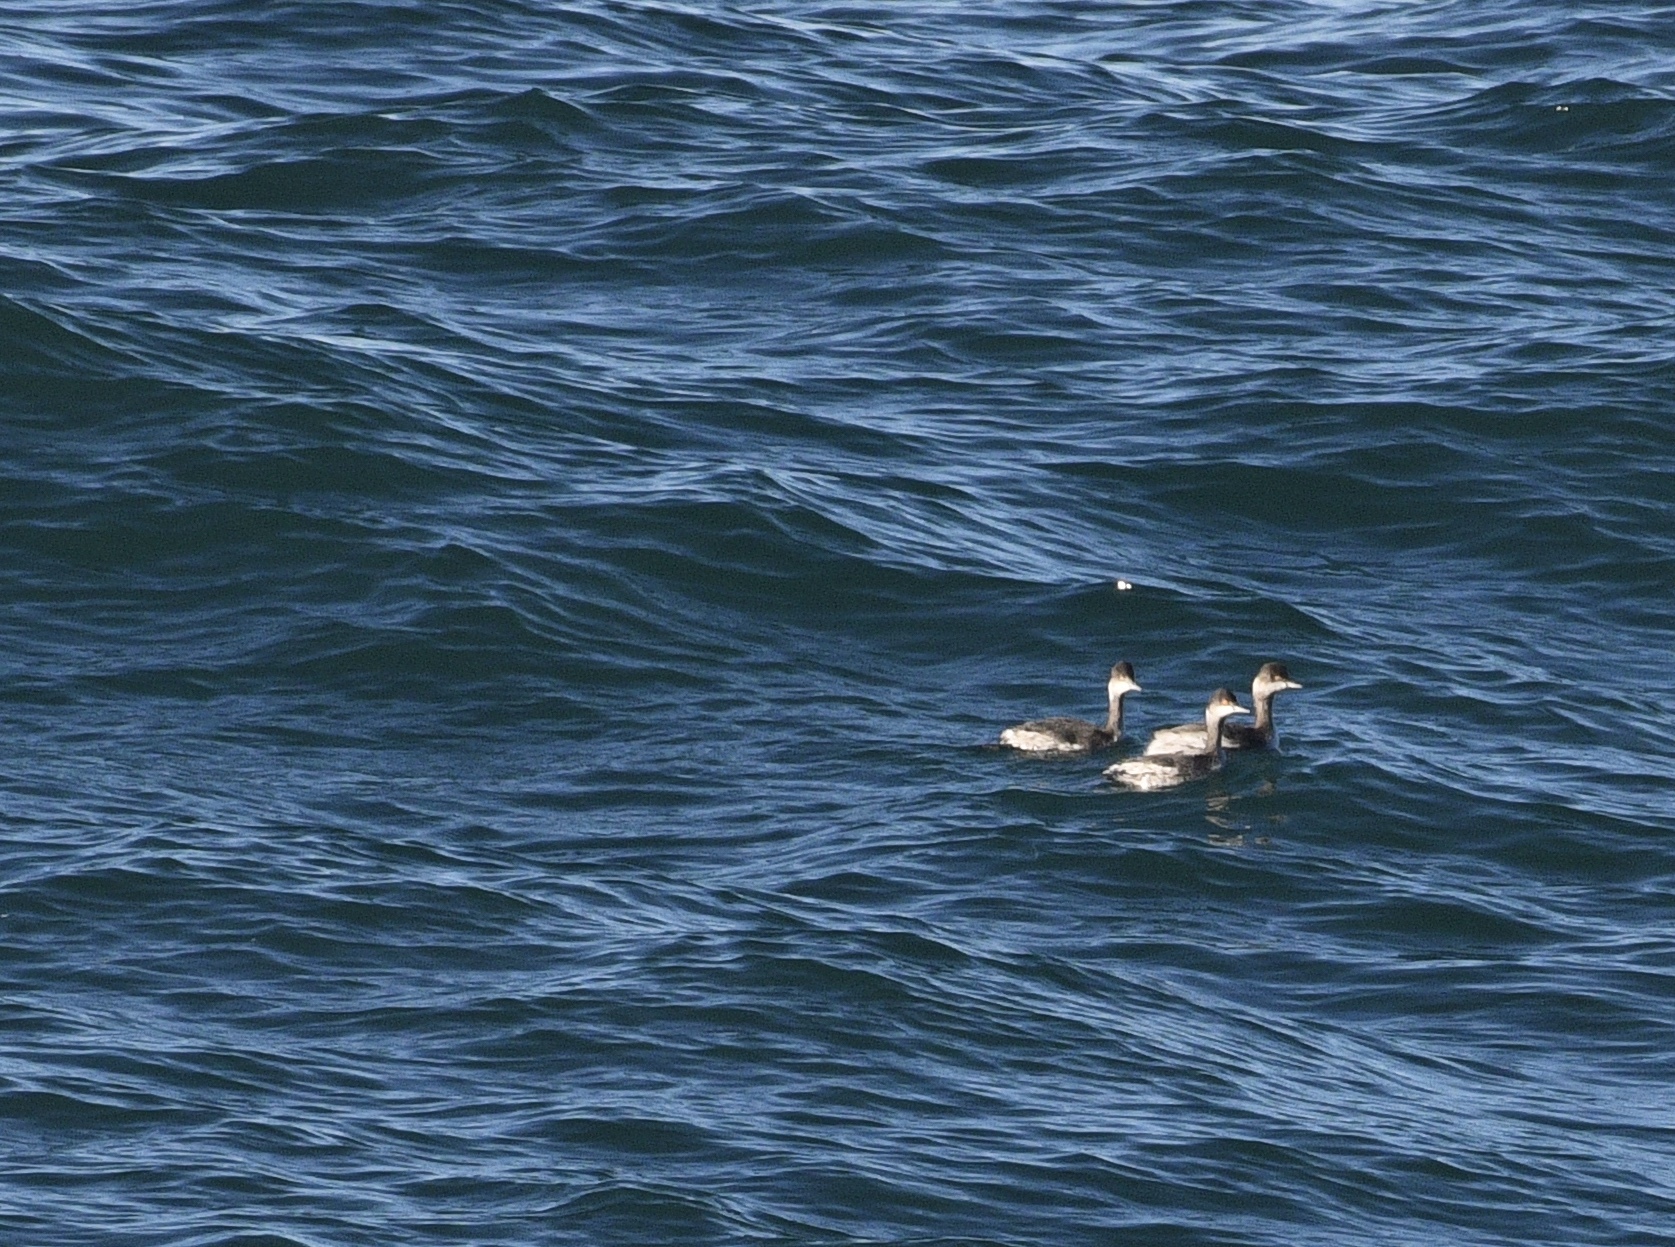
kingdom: Animalia
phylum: Chordata
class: Aves
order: Podicipediformes
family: Podicipedidae
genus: Podiceps
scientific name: Podiceps nigricollis
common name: Black-necked grebe
